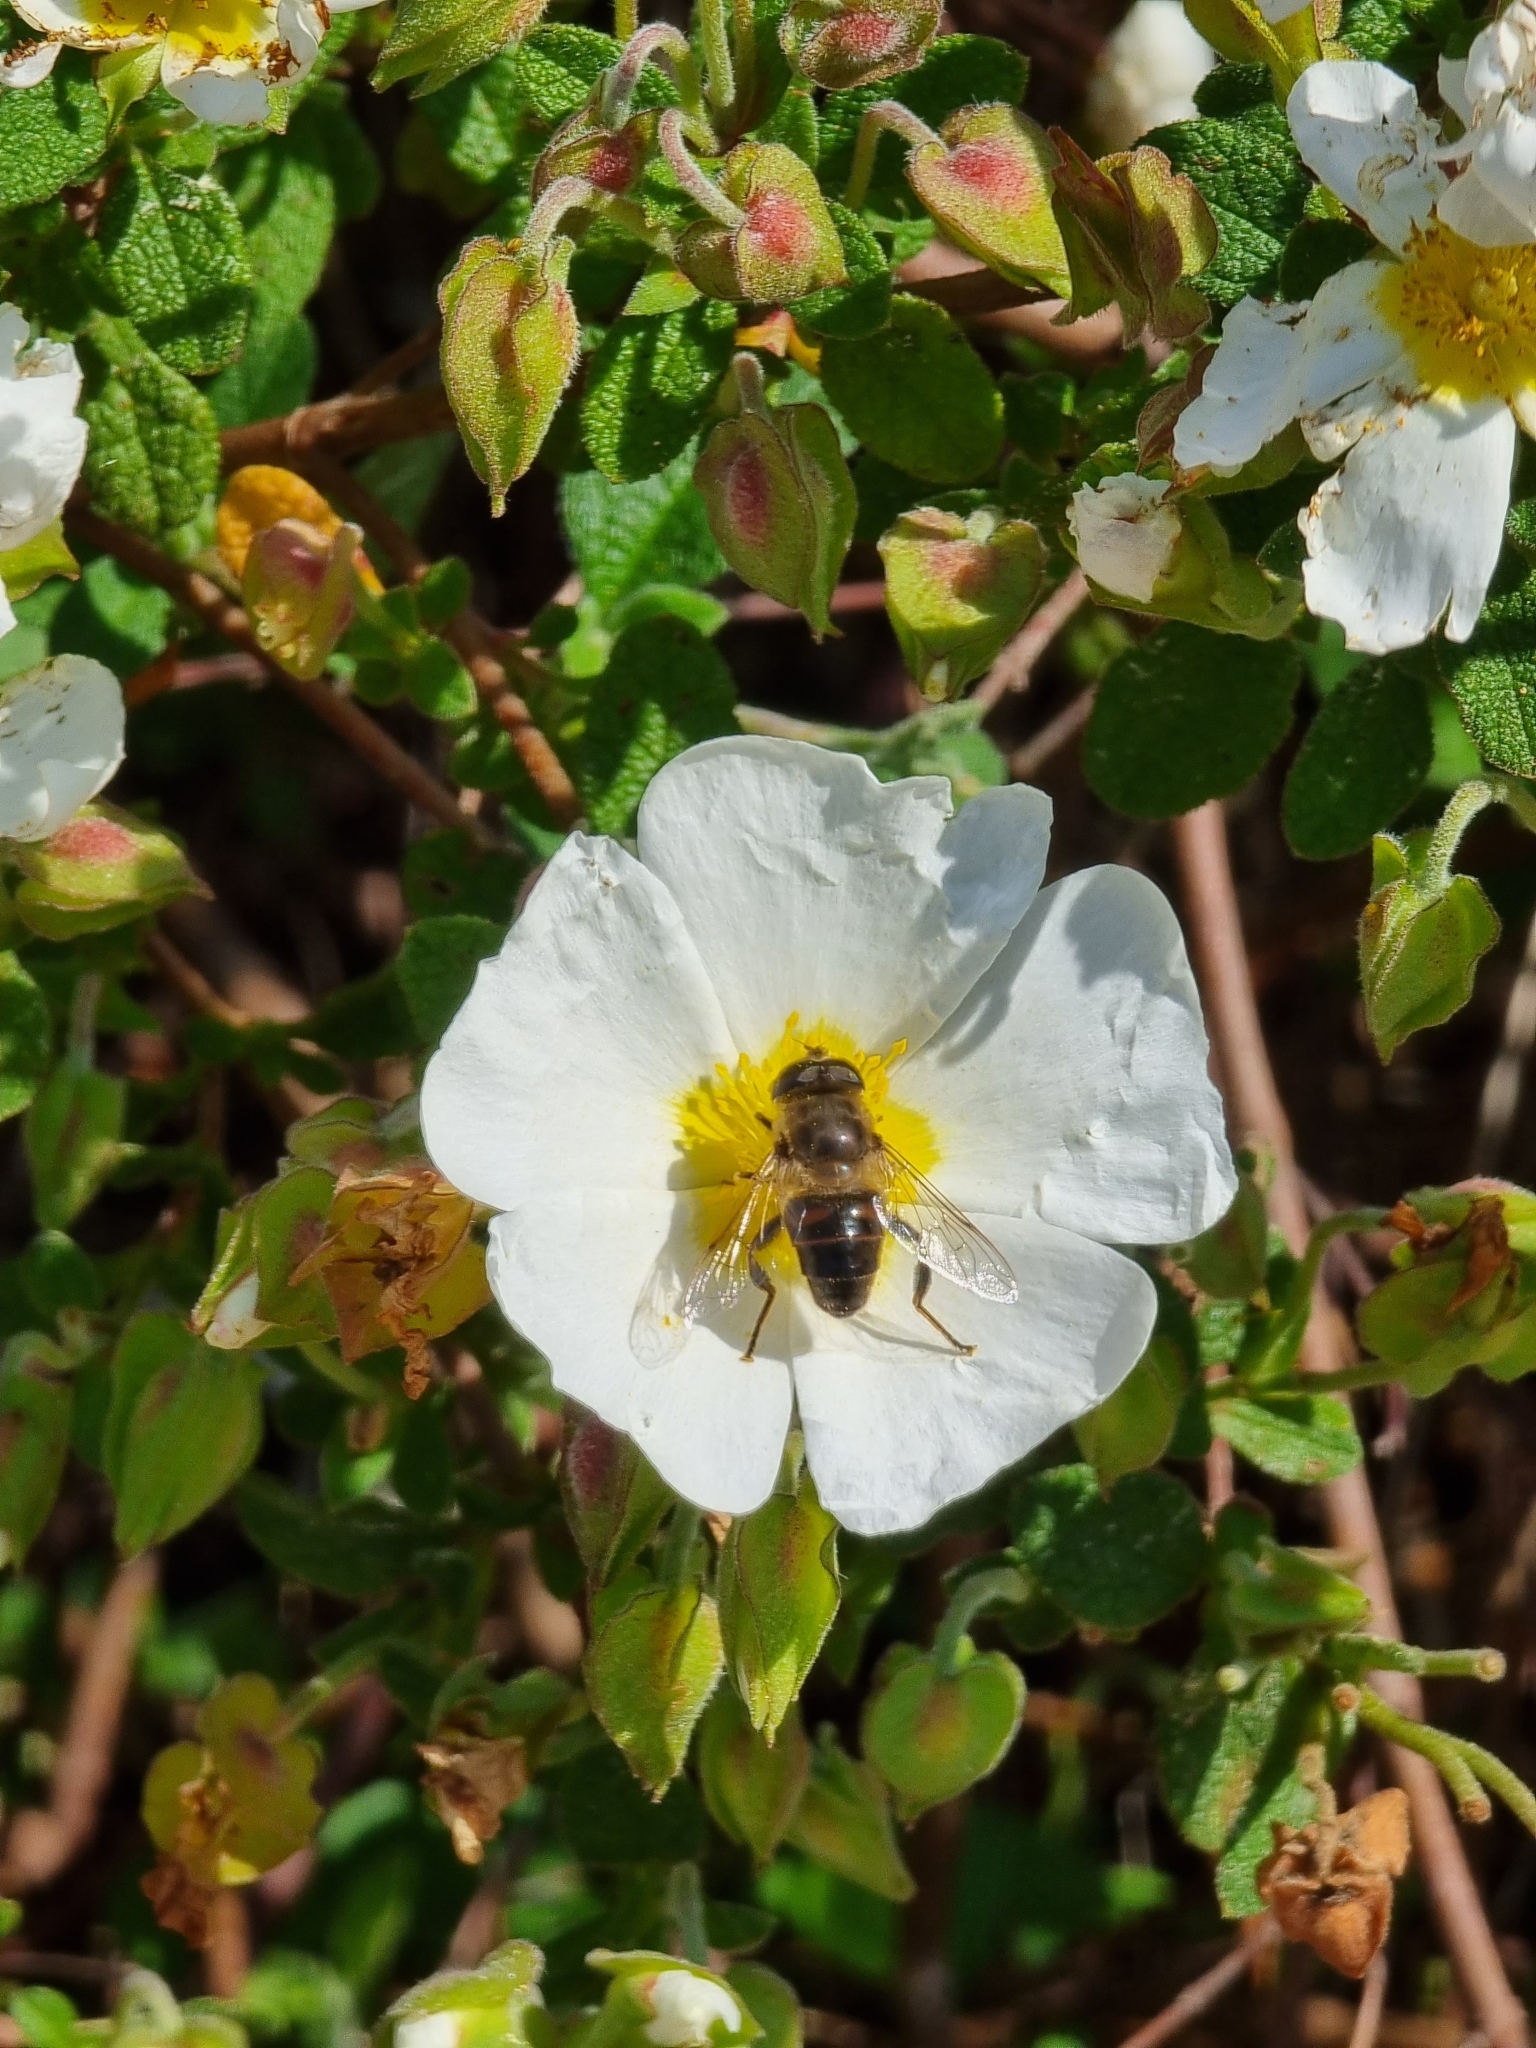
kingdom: Animalia
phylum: Arthropoda
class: Insecta
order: Diptera
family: Syrphidae
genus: Eristalis
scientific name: Eristalis tenax
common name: Drone fly
